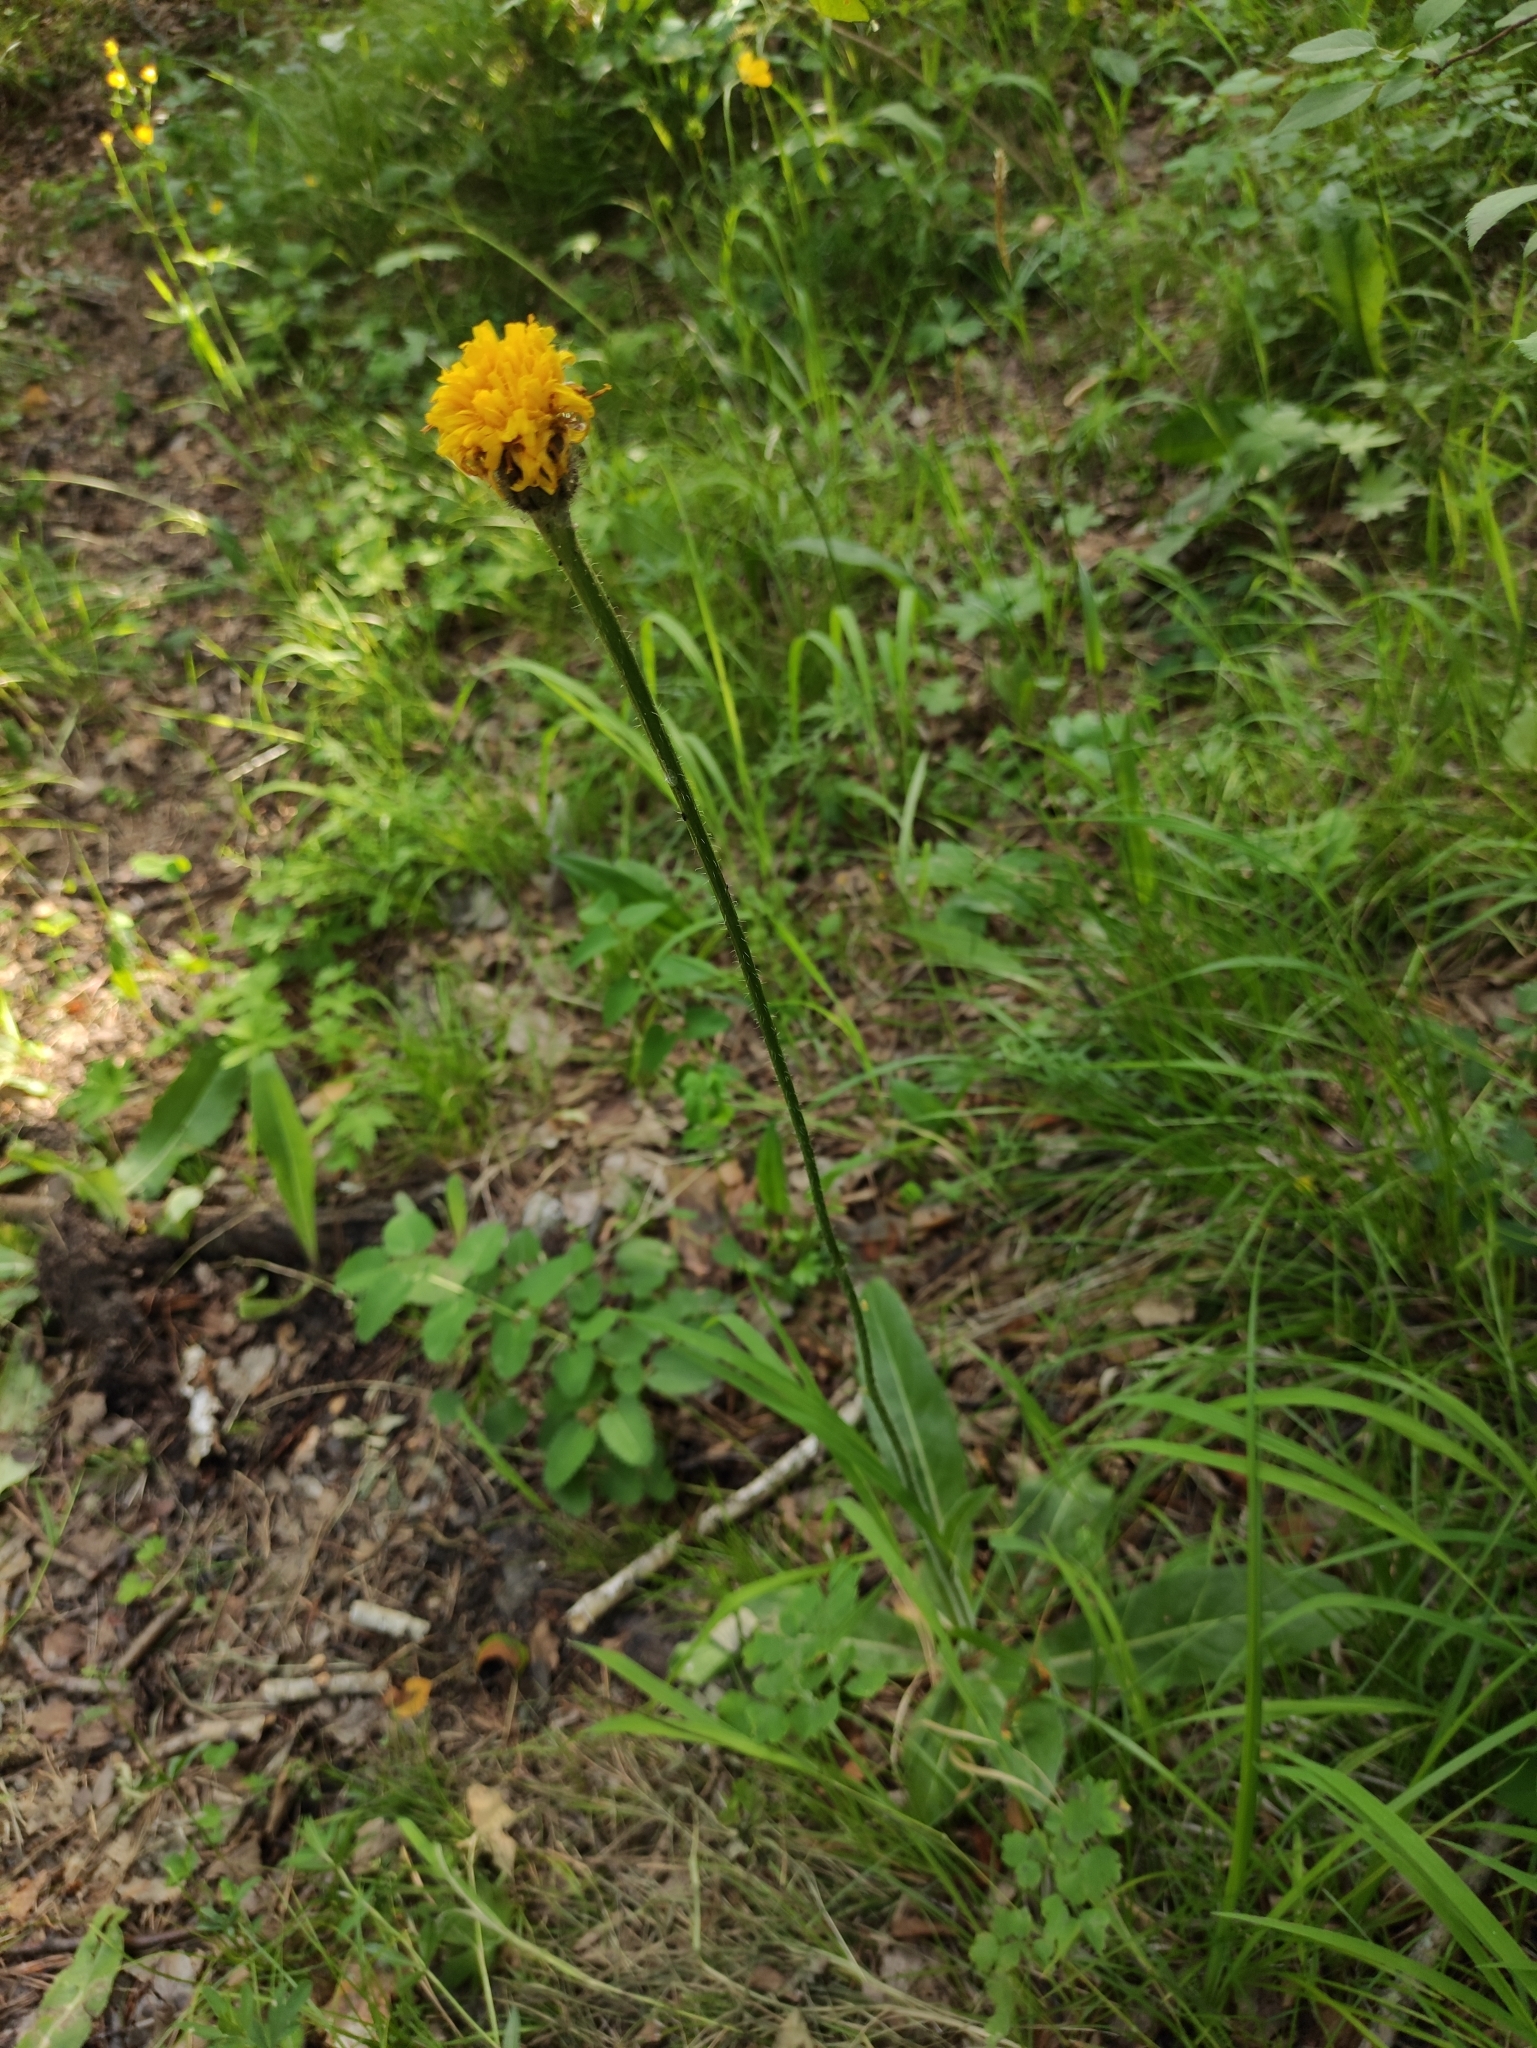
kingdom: Plantae
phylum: Tracheophyta
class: Magnoliopsida
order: Asterales
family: Asteraceae
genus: Trommsdorffia
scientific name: Trommsdorffia maculata
